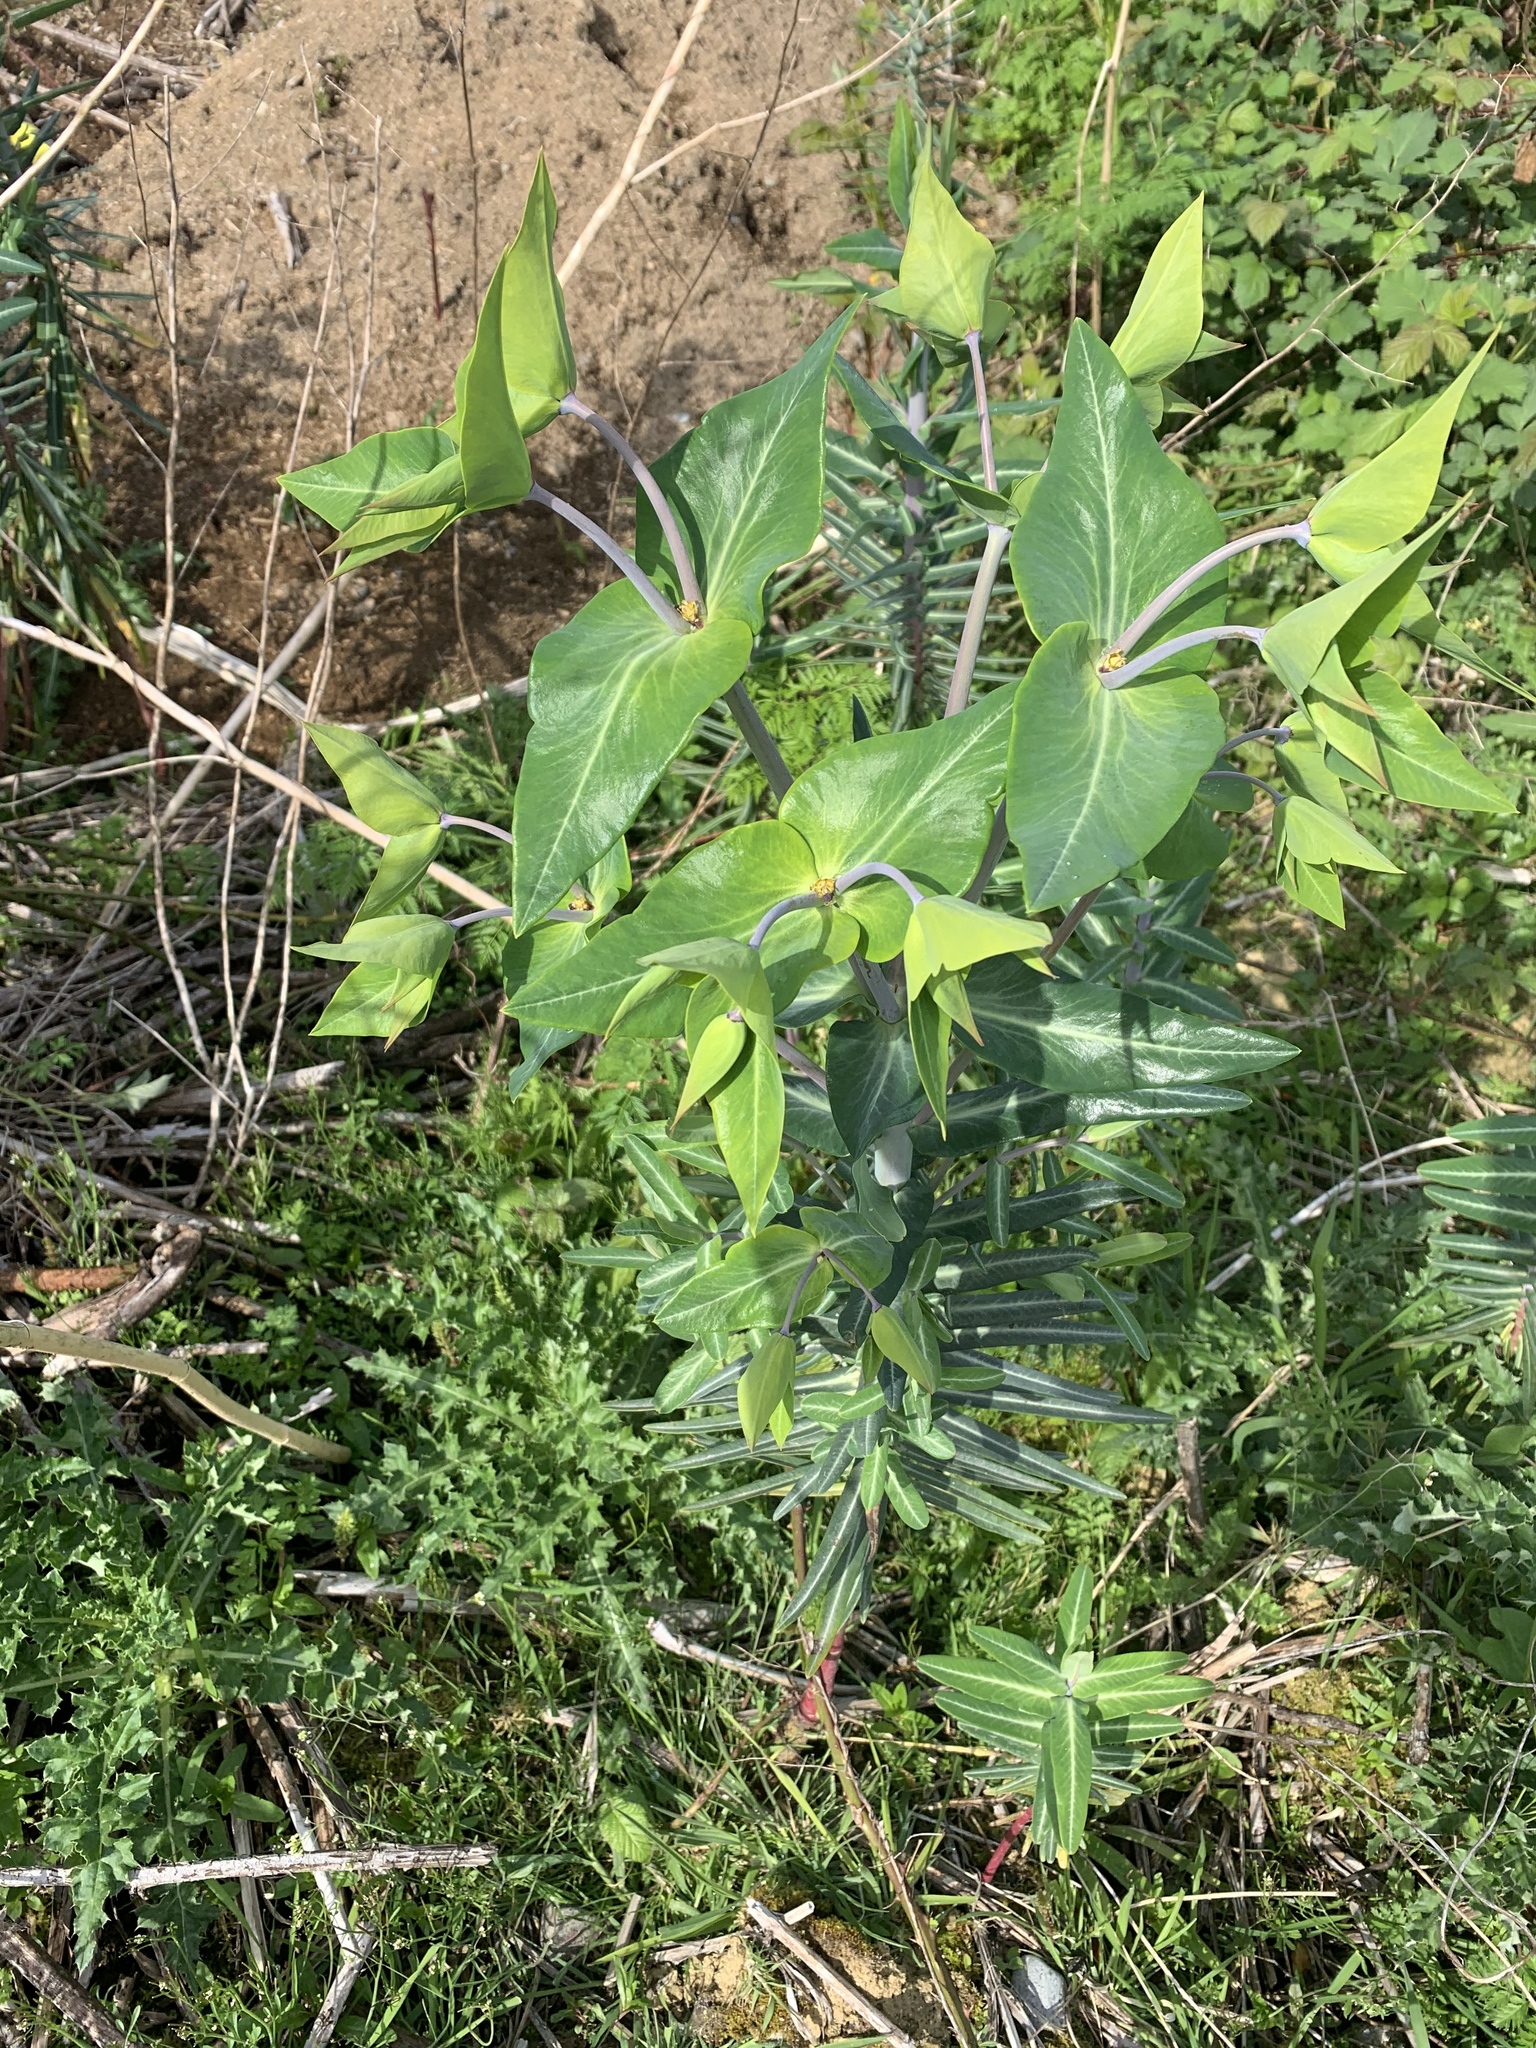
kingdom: Plantae
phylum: Tracheophyta
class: Magnoliopsida
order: Malpighiales
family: Euphorbiaceae
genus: Euphorbia
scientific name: Euphorbia lathyris
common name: Caper spurge
